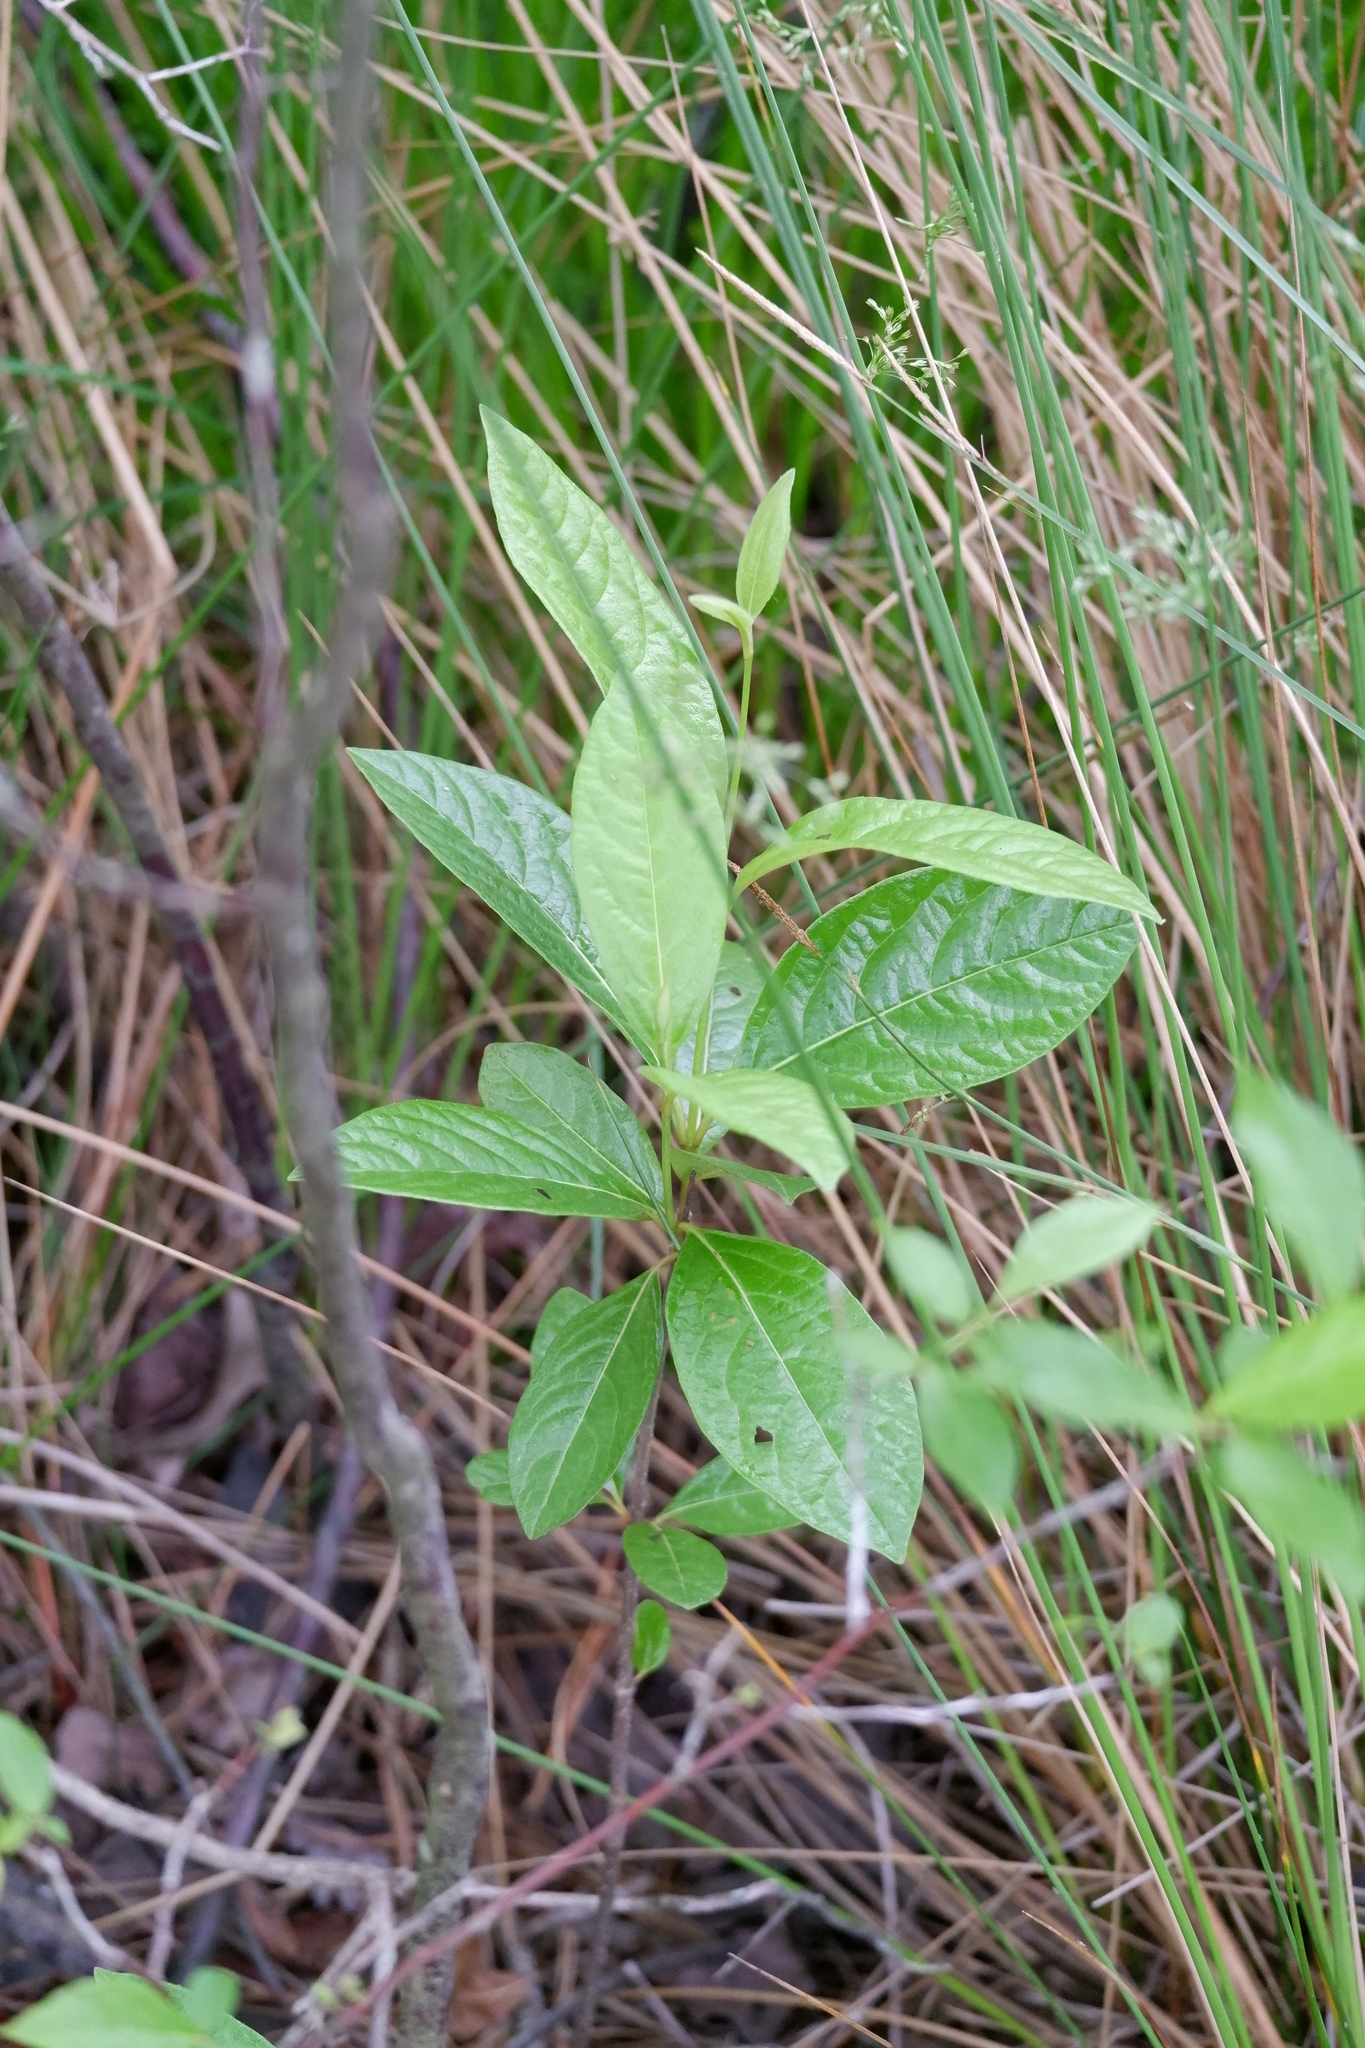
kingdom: Plantae
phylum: Tracheophyta
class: Magnoliopsida
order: Dipsacales
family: Viburnaceae
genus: Viburnum
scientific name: Viburnum nudum
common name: Possum haw
